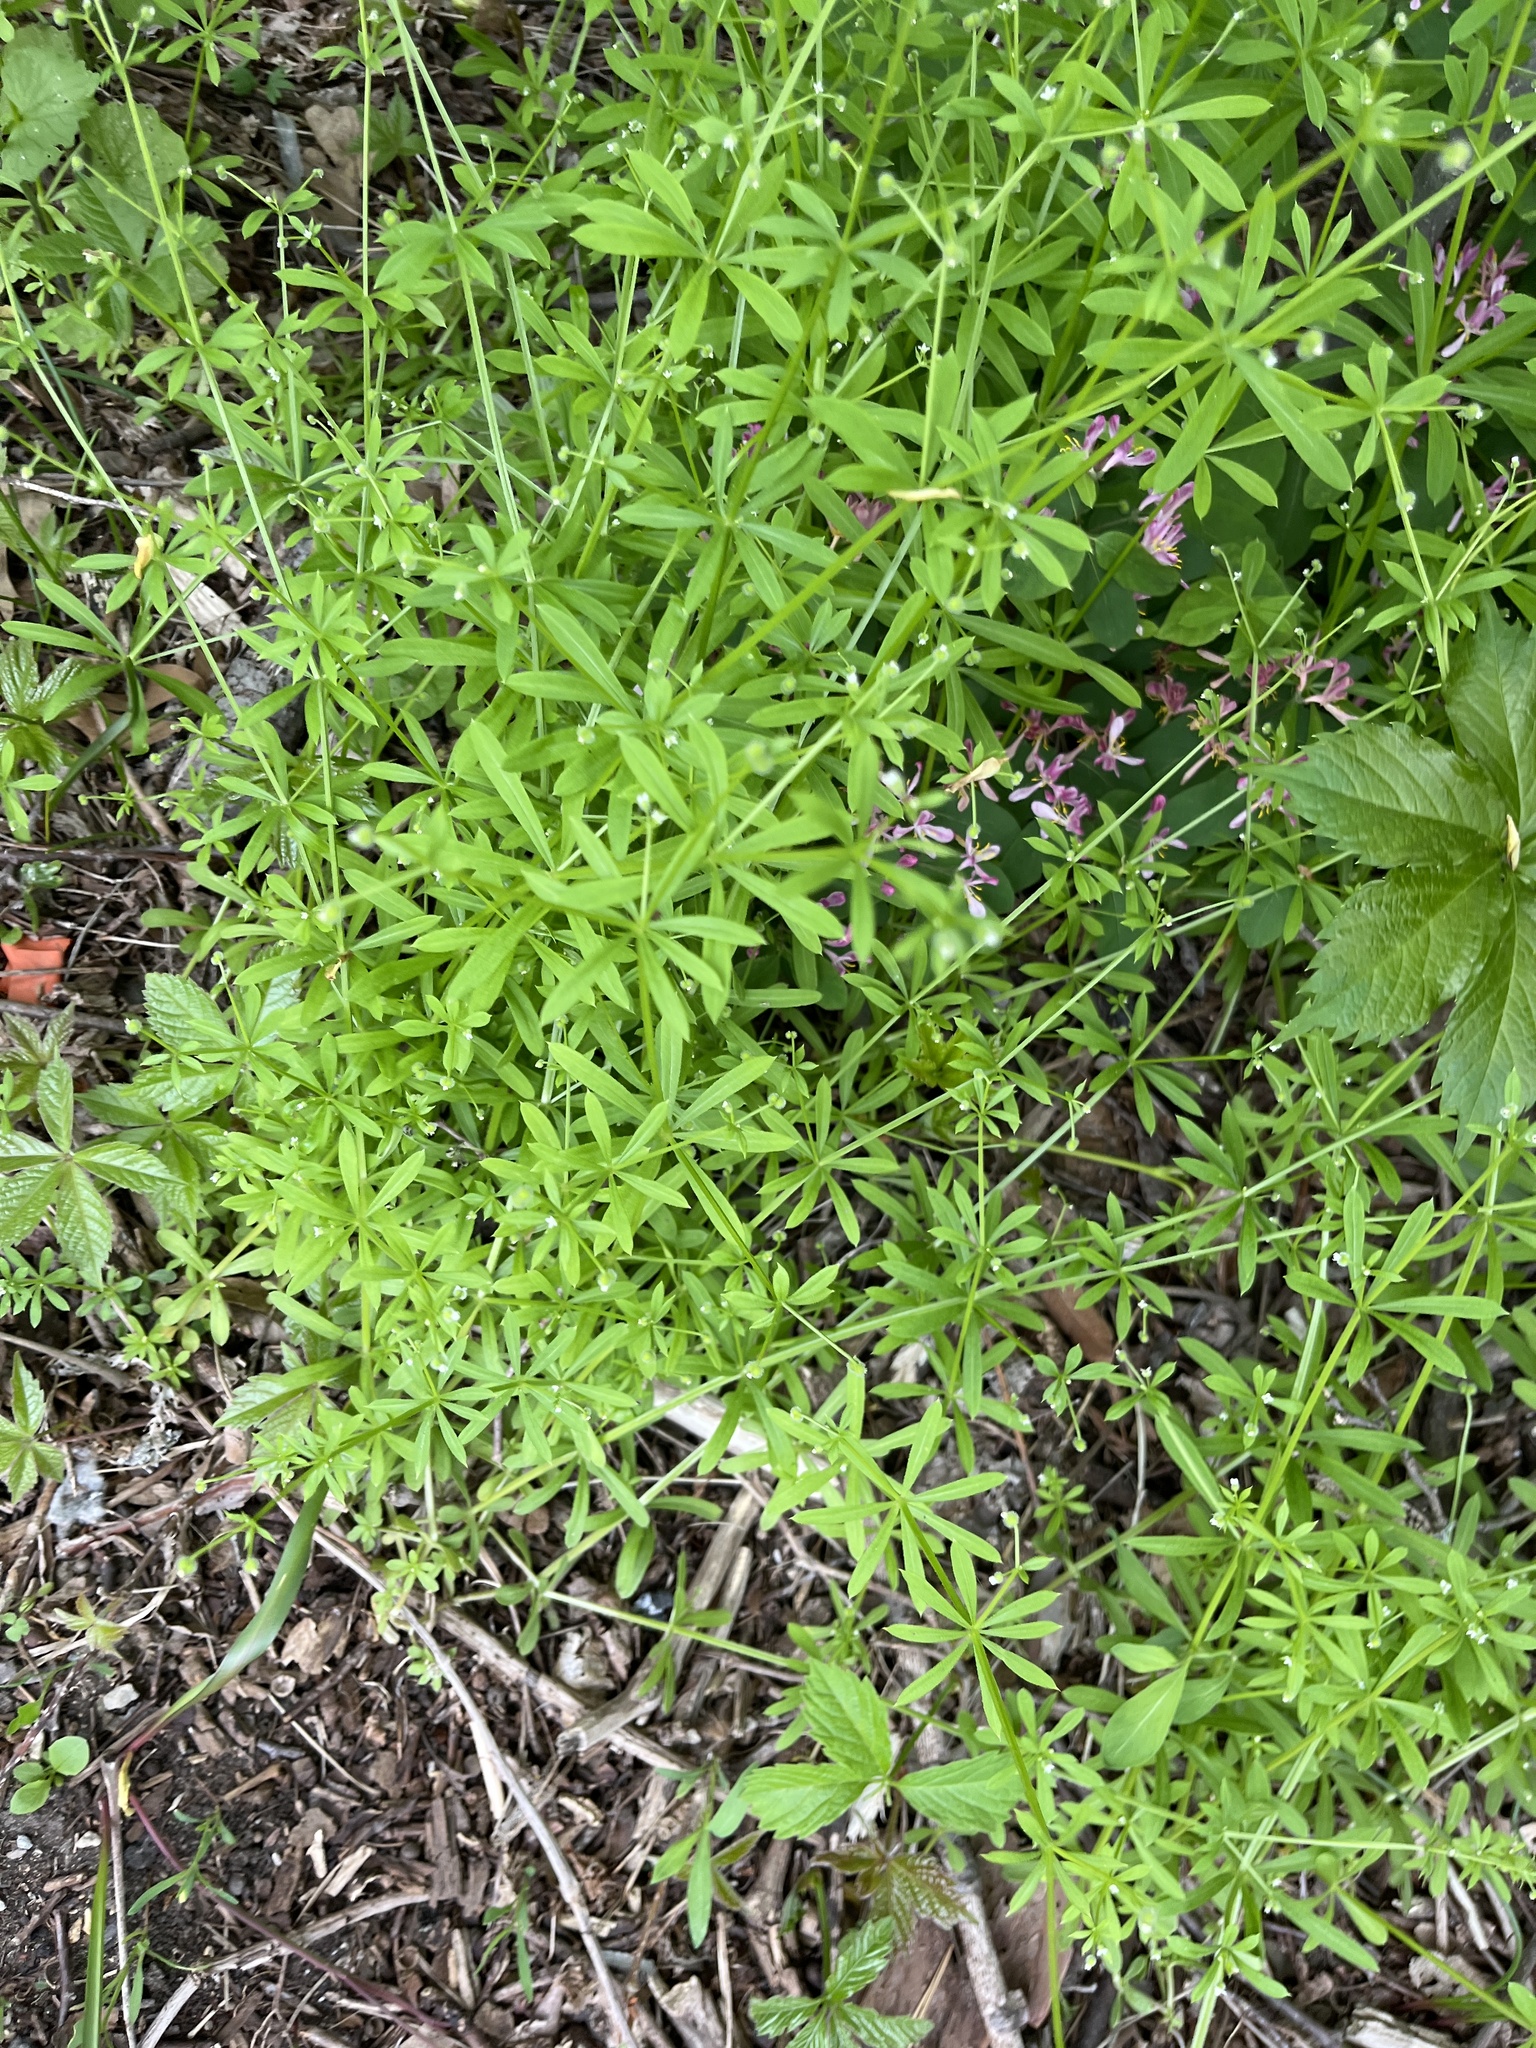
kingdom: Plantae
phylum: Tracheophyta
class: Magnoliopsida
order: Gentianales
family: Rubiaceae
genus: Galium
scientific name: Galium aparine
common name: Cleavers
